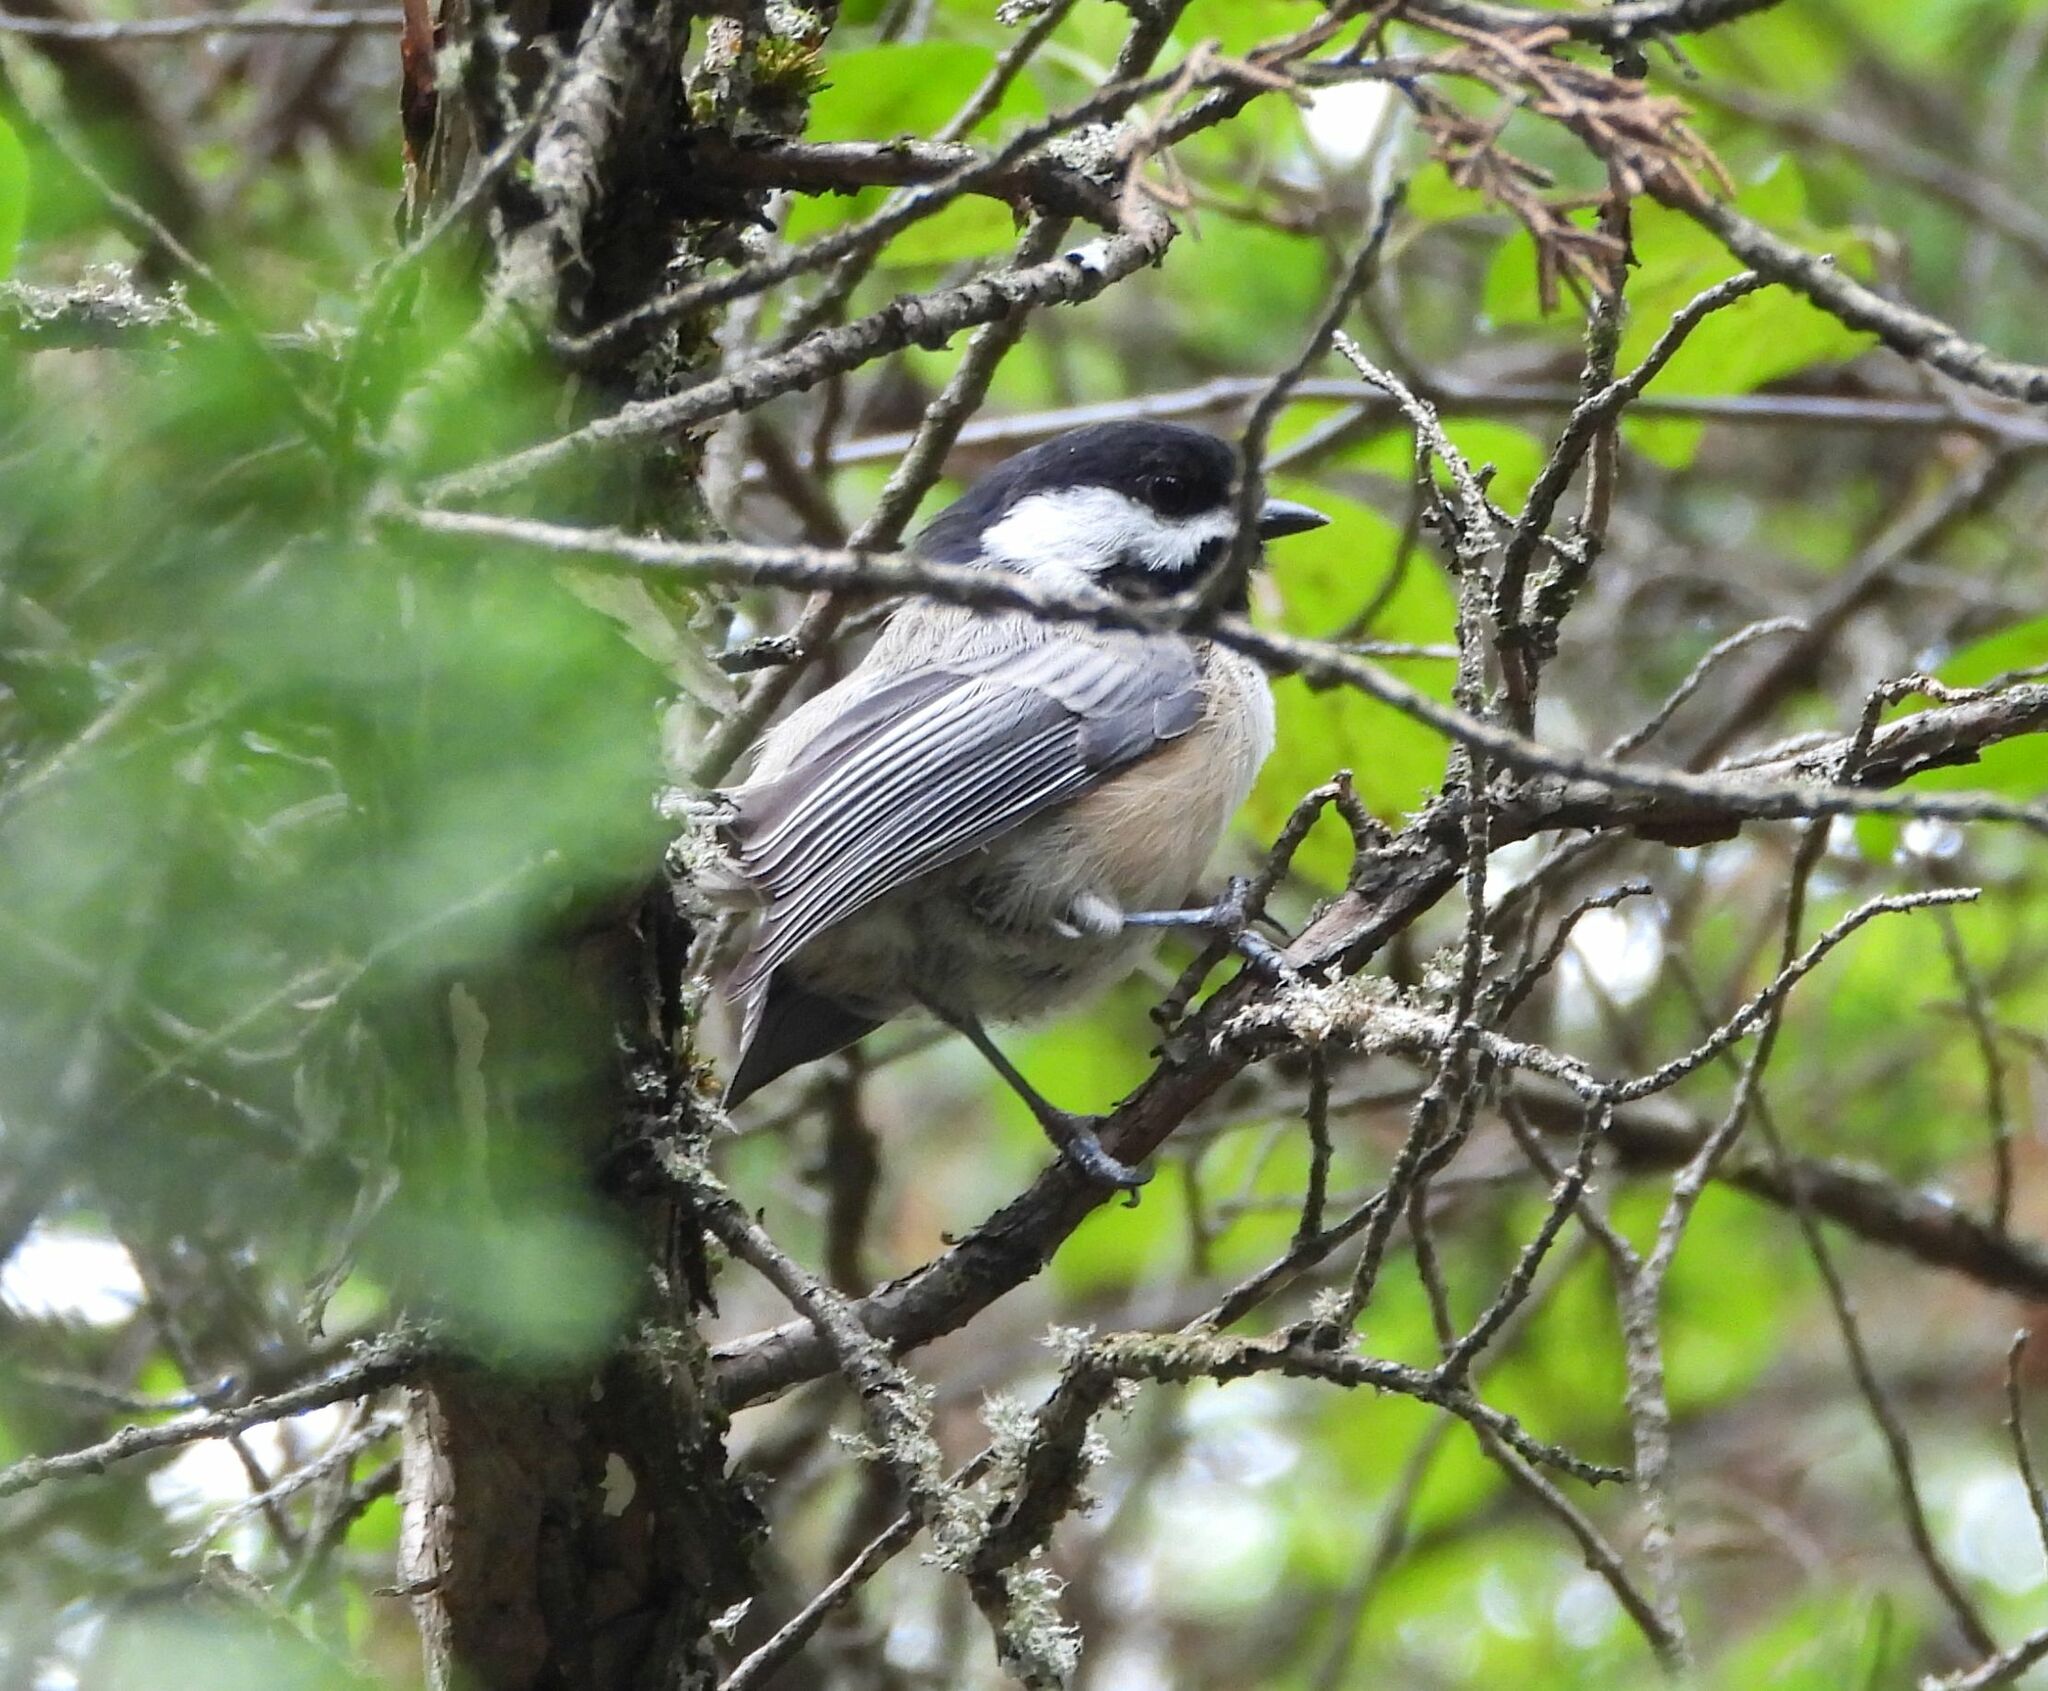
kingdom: Animalia
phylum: Chordata
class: Aves
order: Passeriformes
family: Paridae
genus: Poecile
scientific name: Poecile atricapillus
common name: Black-capped chickadee
